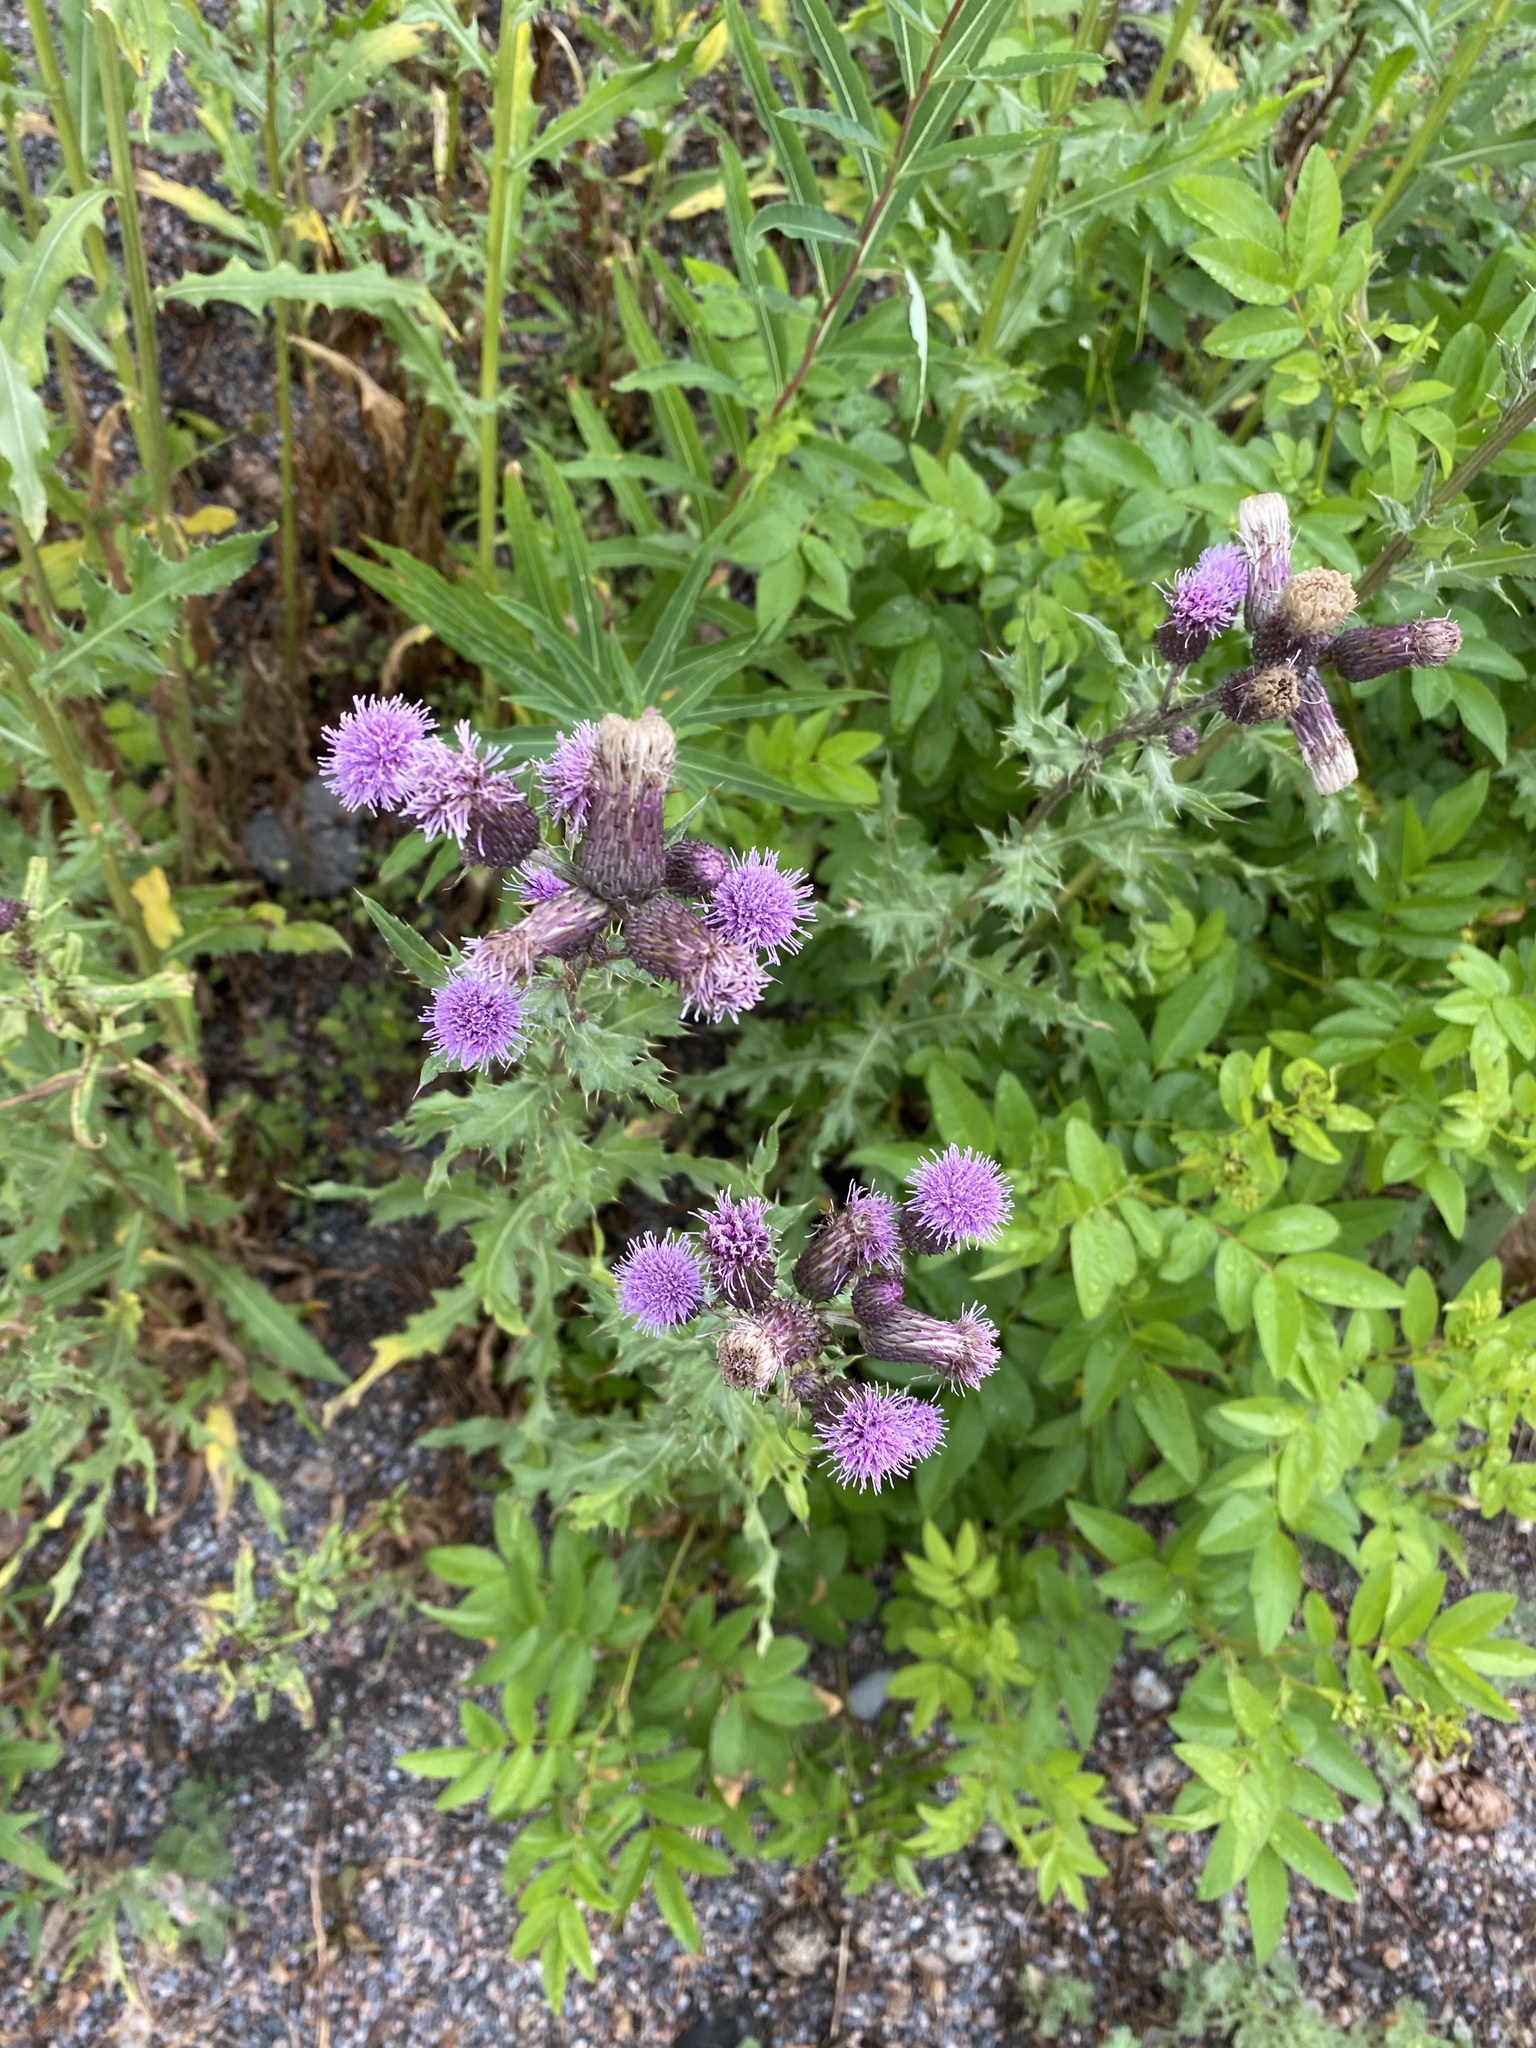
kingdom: Plantae
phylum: Tracheophyta
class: Magnoliopsida
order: Asterales
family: Asteraceae
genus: Cirsium
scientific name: Cirsium arvense
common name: Creeping thistle
